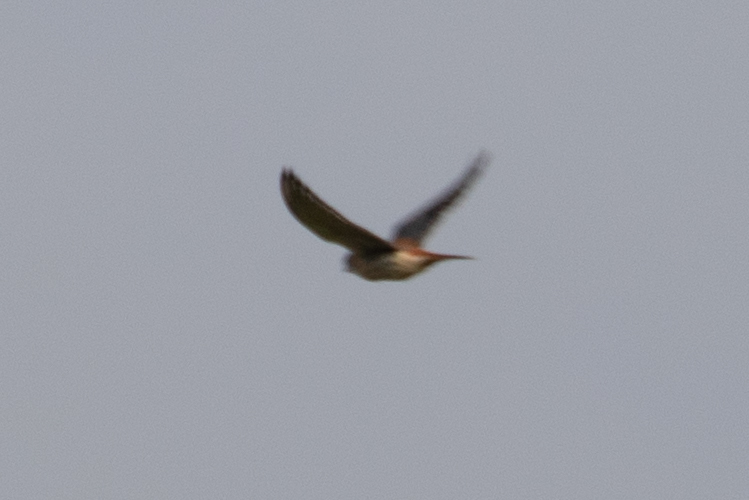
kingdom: Animalia
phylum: Chordata
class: Aves
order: Falconiformes
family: Falconidae
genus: Falco
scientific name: Falco sparverius
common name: American kestrel
